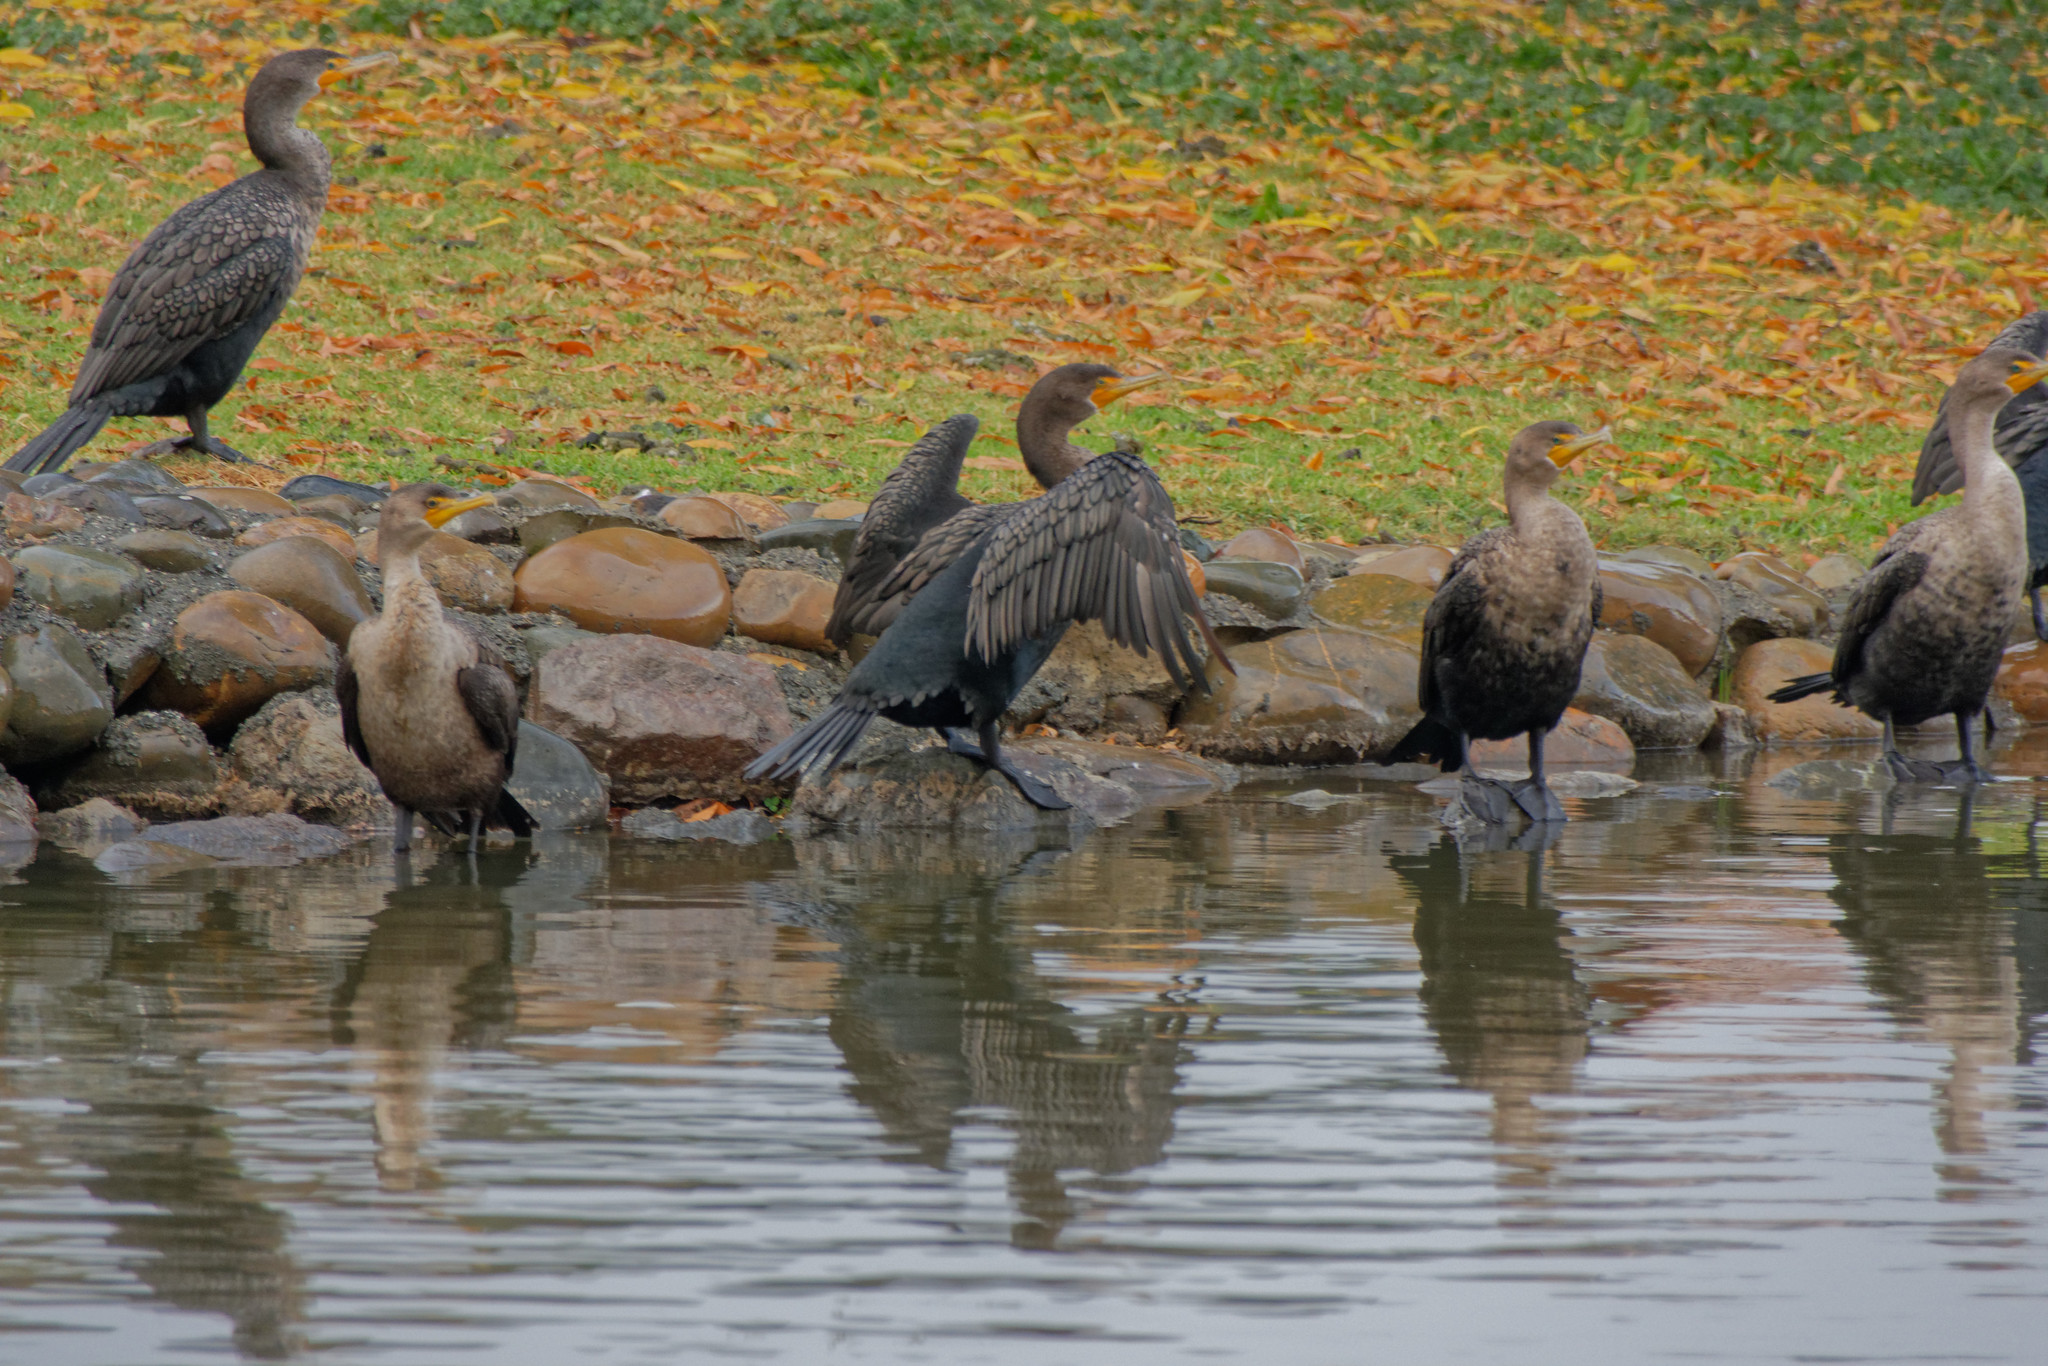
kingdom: Animalia
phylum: Chordata
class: Aves
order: Suliformes
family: Phalacrocoracidae
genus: Phalacrocorax
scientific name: Phalacrocorax auritus
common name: Double-crested cormorant
